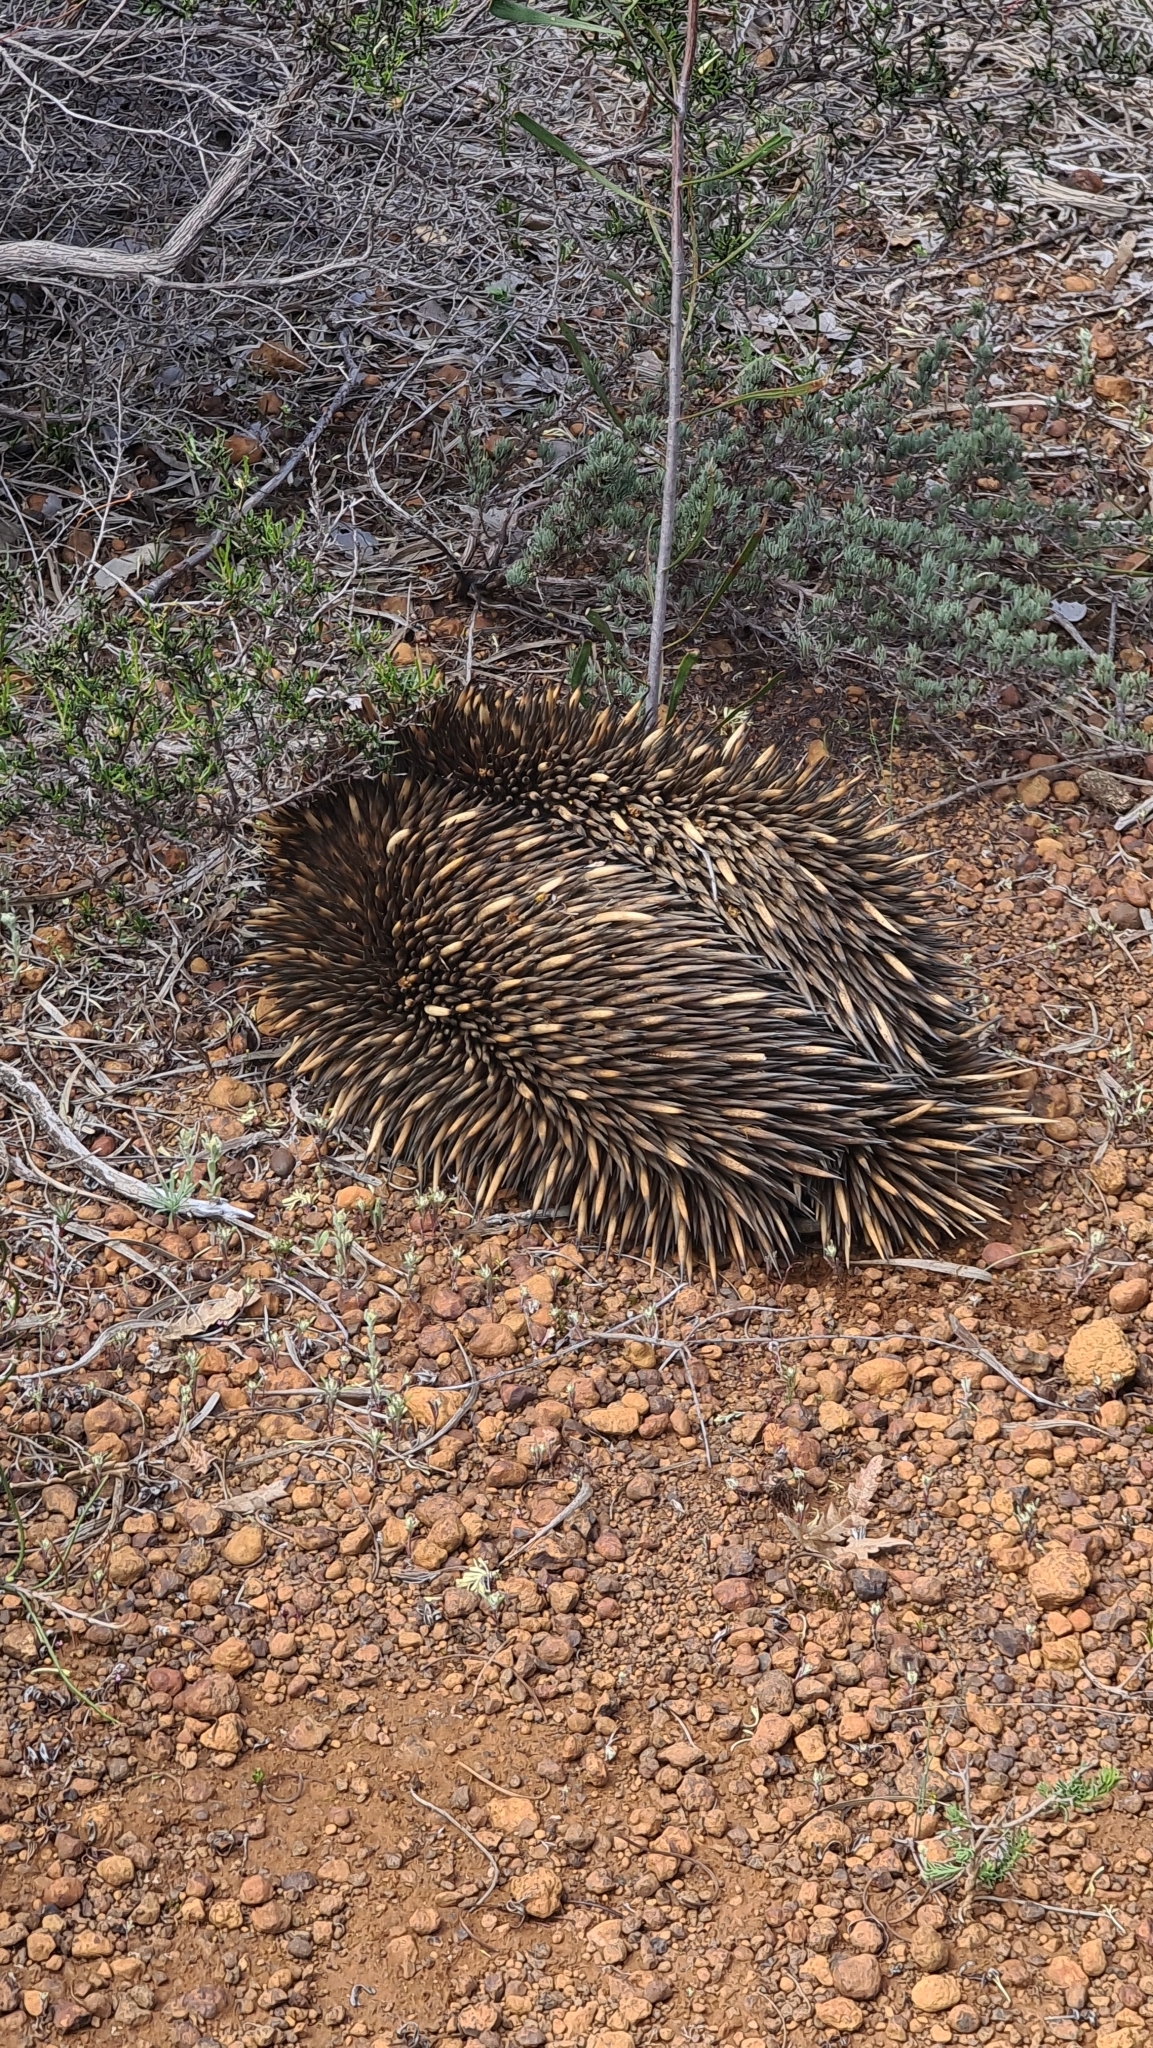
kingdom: Animalia
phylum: Chordata
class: Mammalia
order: Monotremata
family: Tachyglossidae
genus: Tachyglossus
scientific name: Tachyglossus aculeatus
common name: Short-beaked echidna
